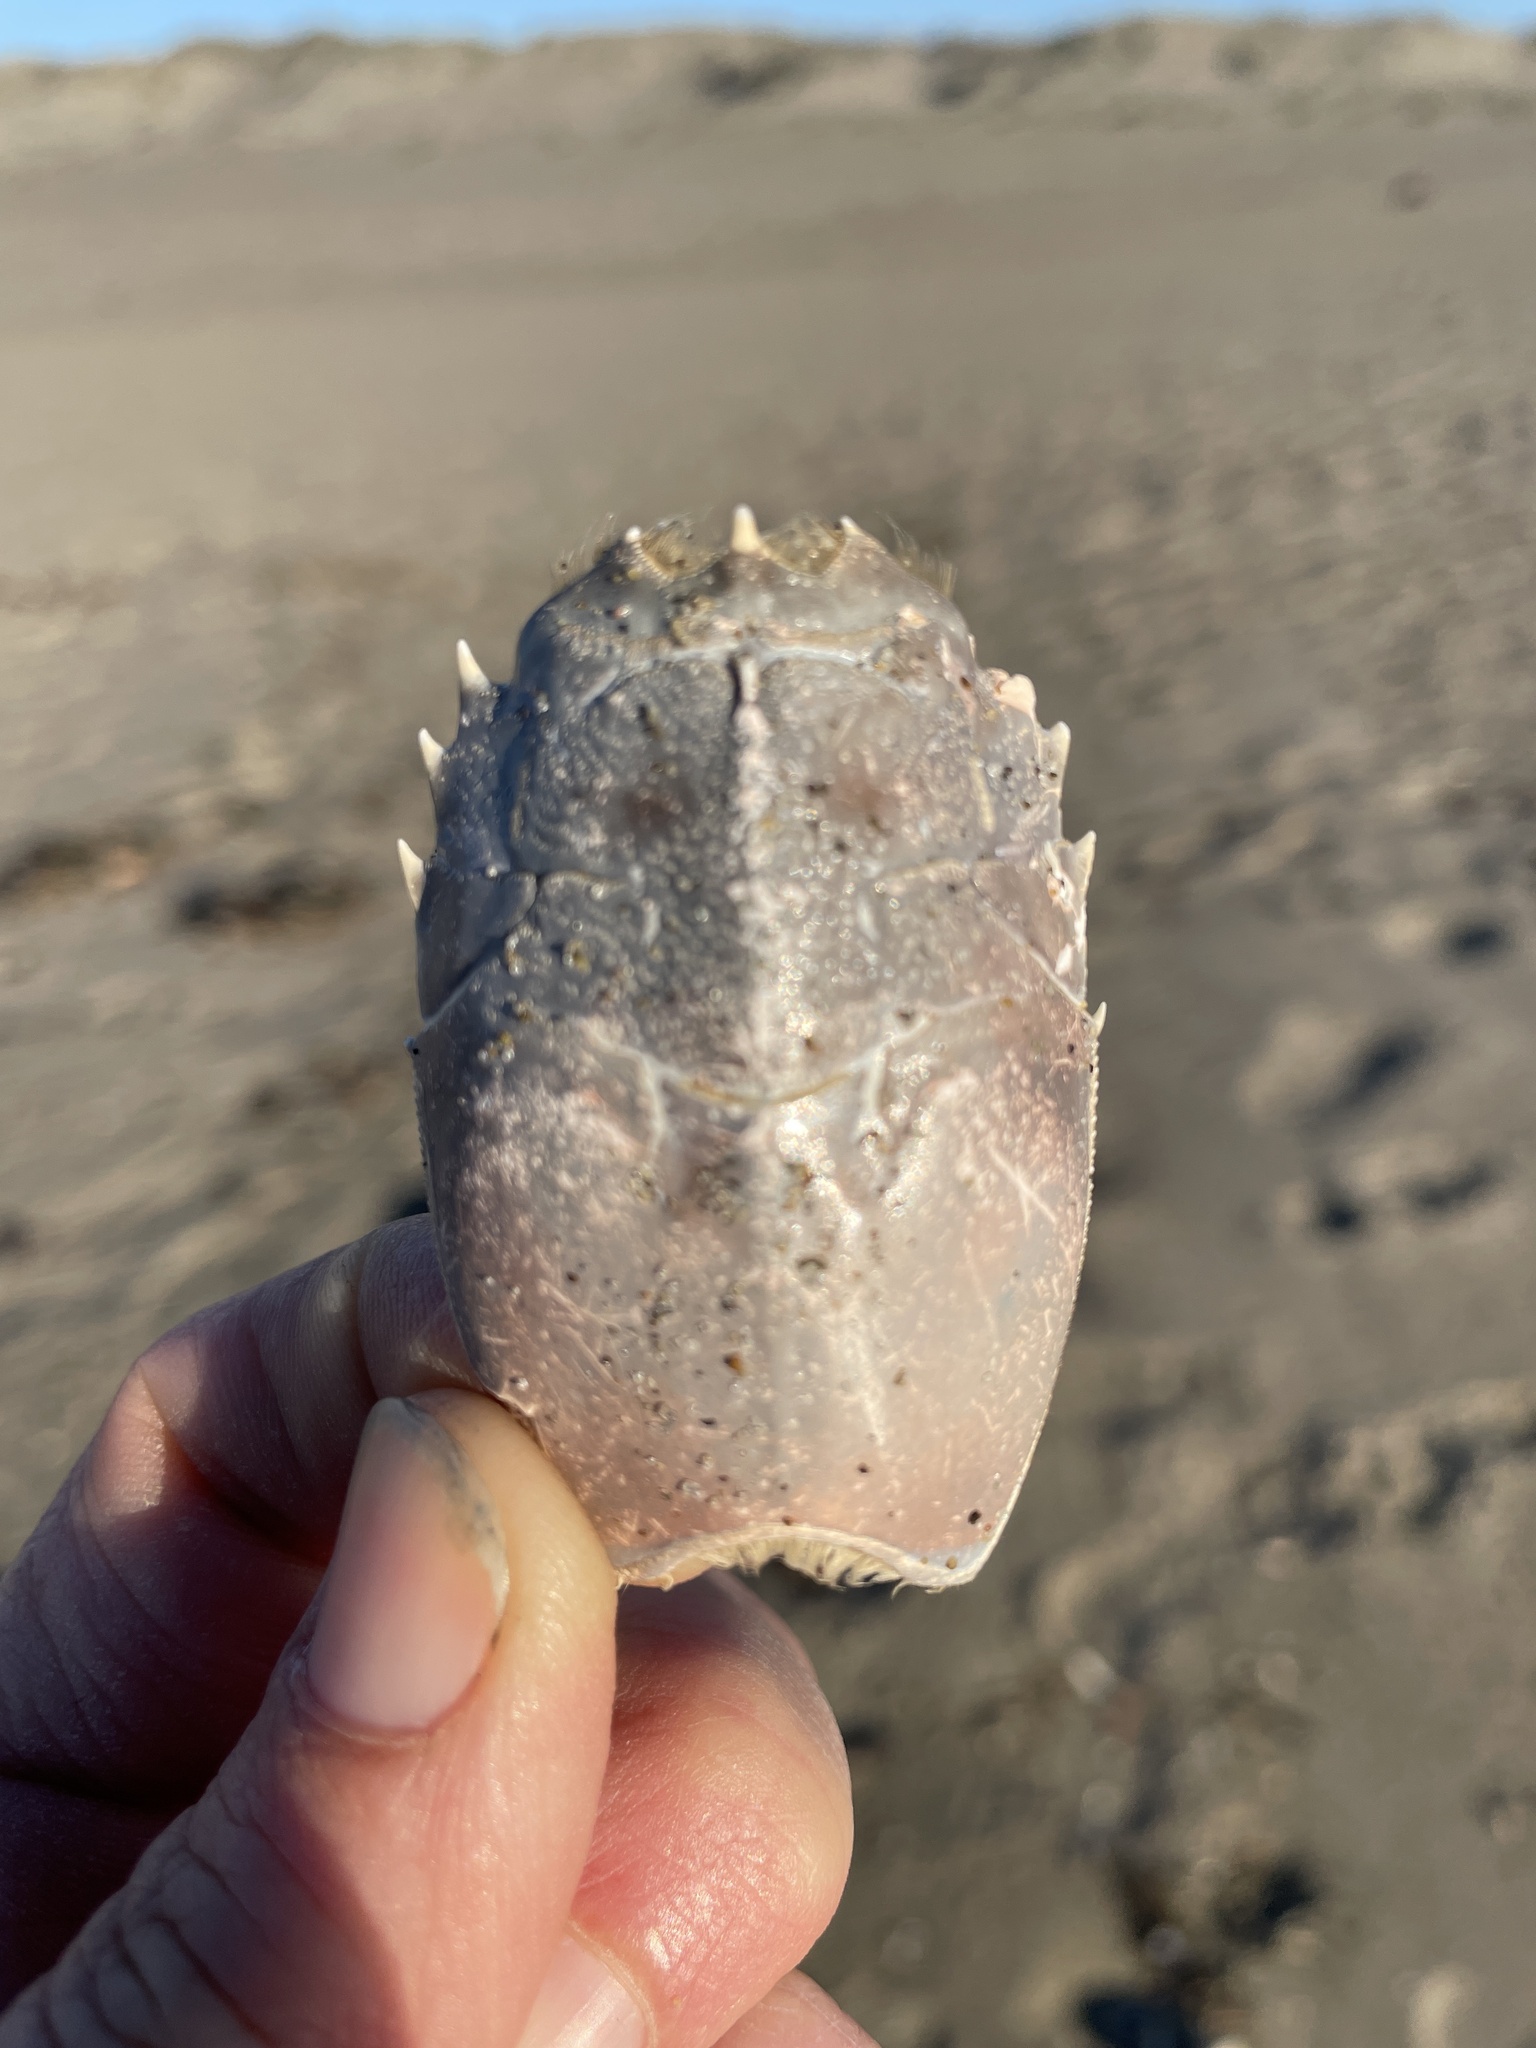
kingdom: Animalia
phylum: Arthropoda
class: Malacostraca
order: Decapoda
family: Blepharipodidae
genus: Blepharipoda
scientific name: Blepharipoda occidentalis
